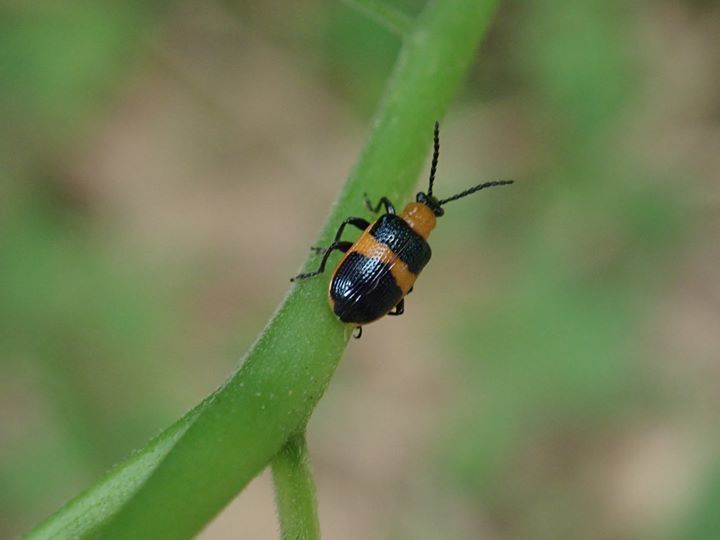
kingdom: Animalia
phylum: Arthropoda
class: Insecta
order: Coleoptera
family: Chrysomelidae
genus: Lema
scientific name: Lema solani
